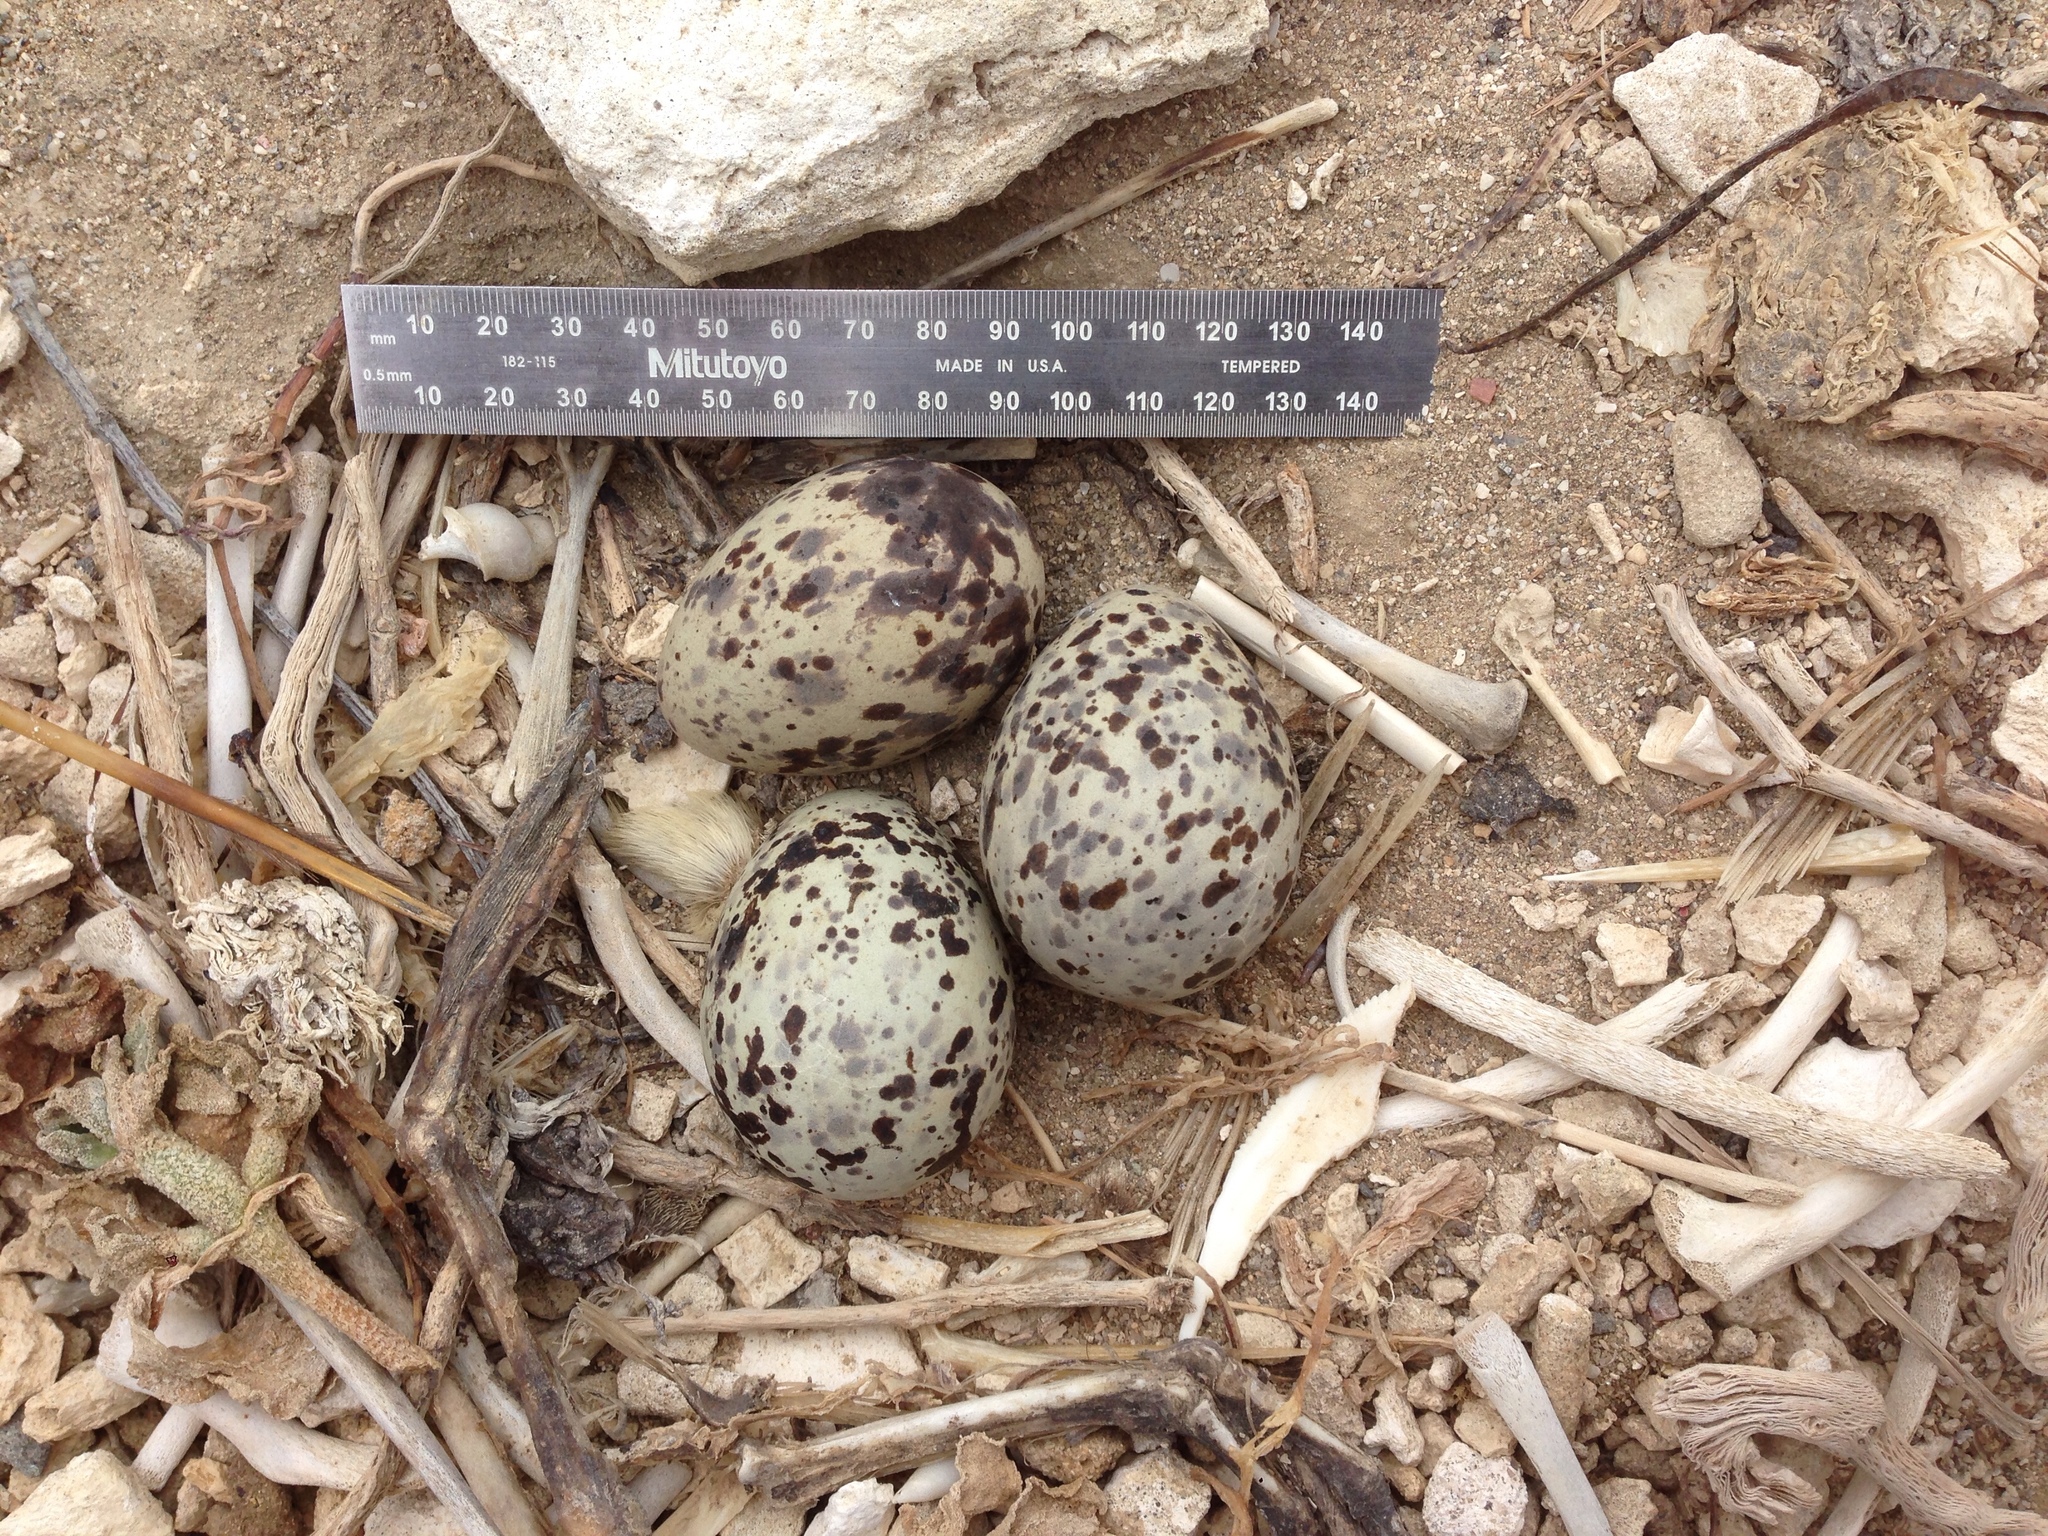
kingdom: Animalia
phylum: Chordata
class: Aves
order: Charadriiformes
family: Laridae
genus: Larus
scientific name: Larus heermanni
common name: Heermann's gull
